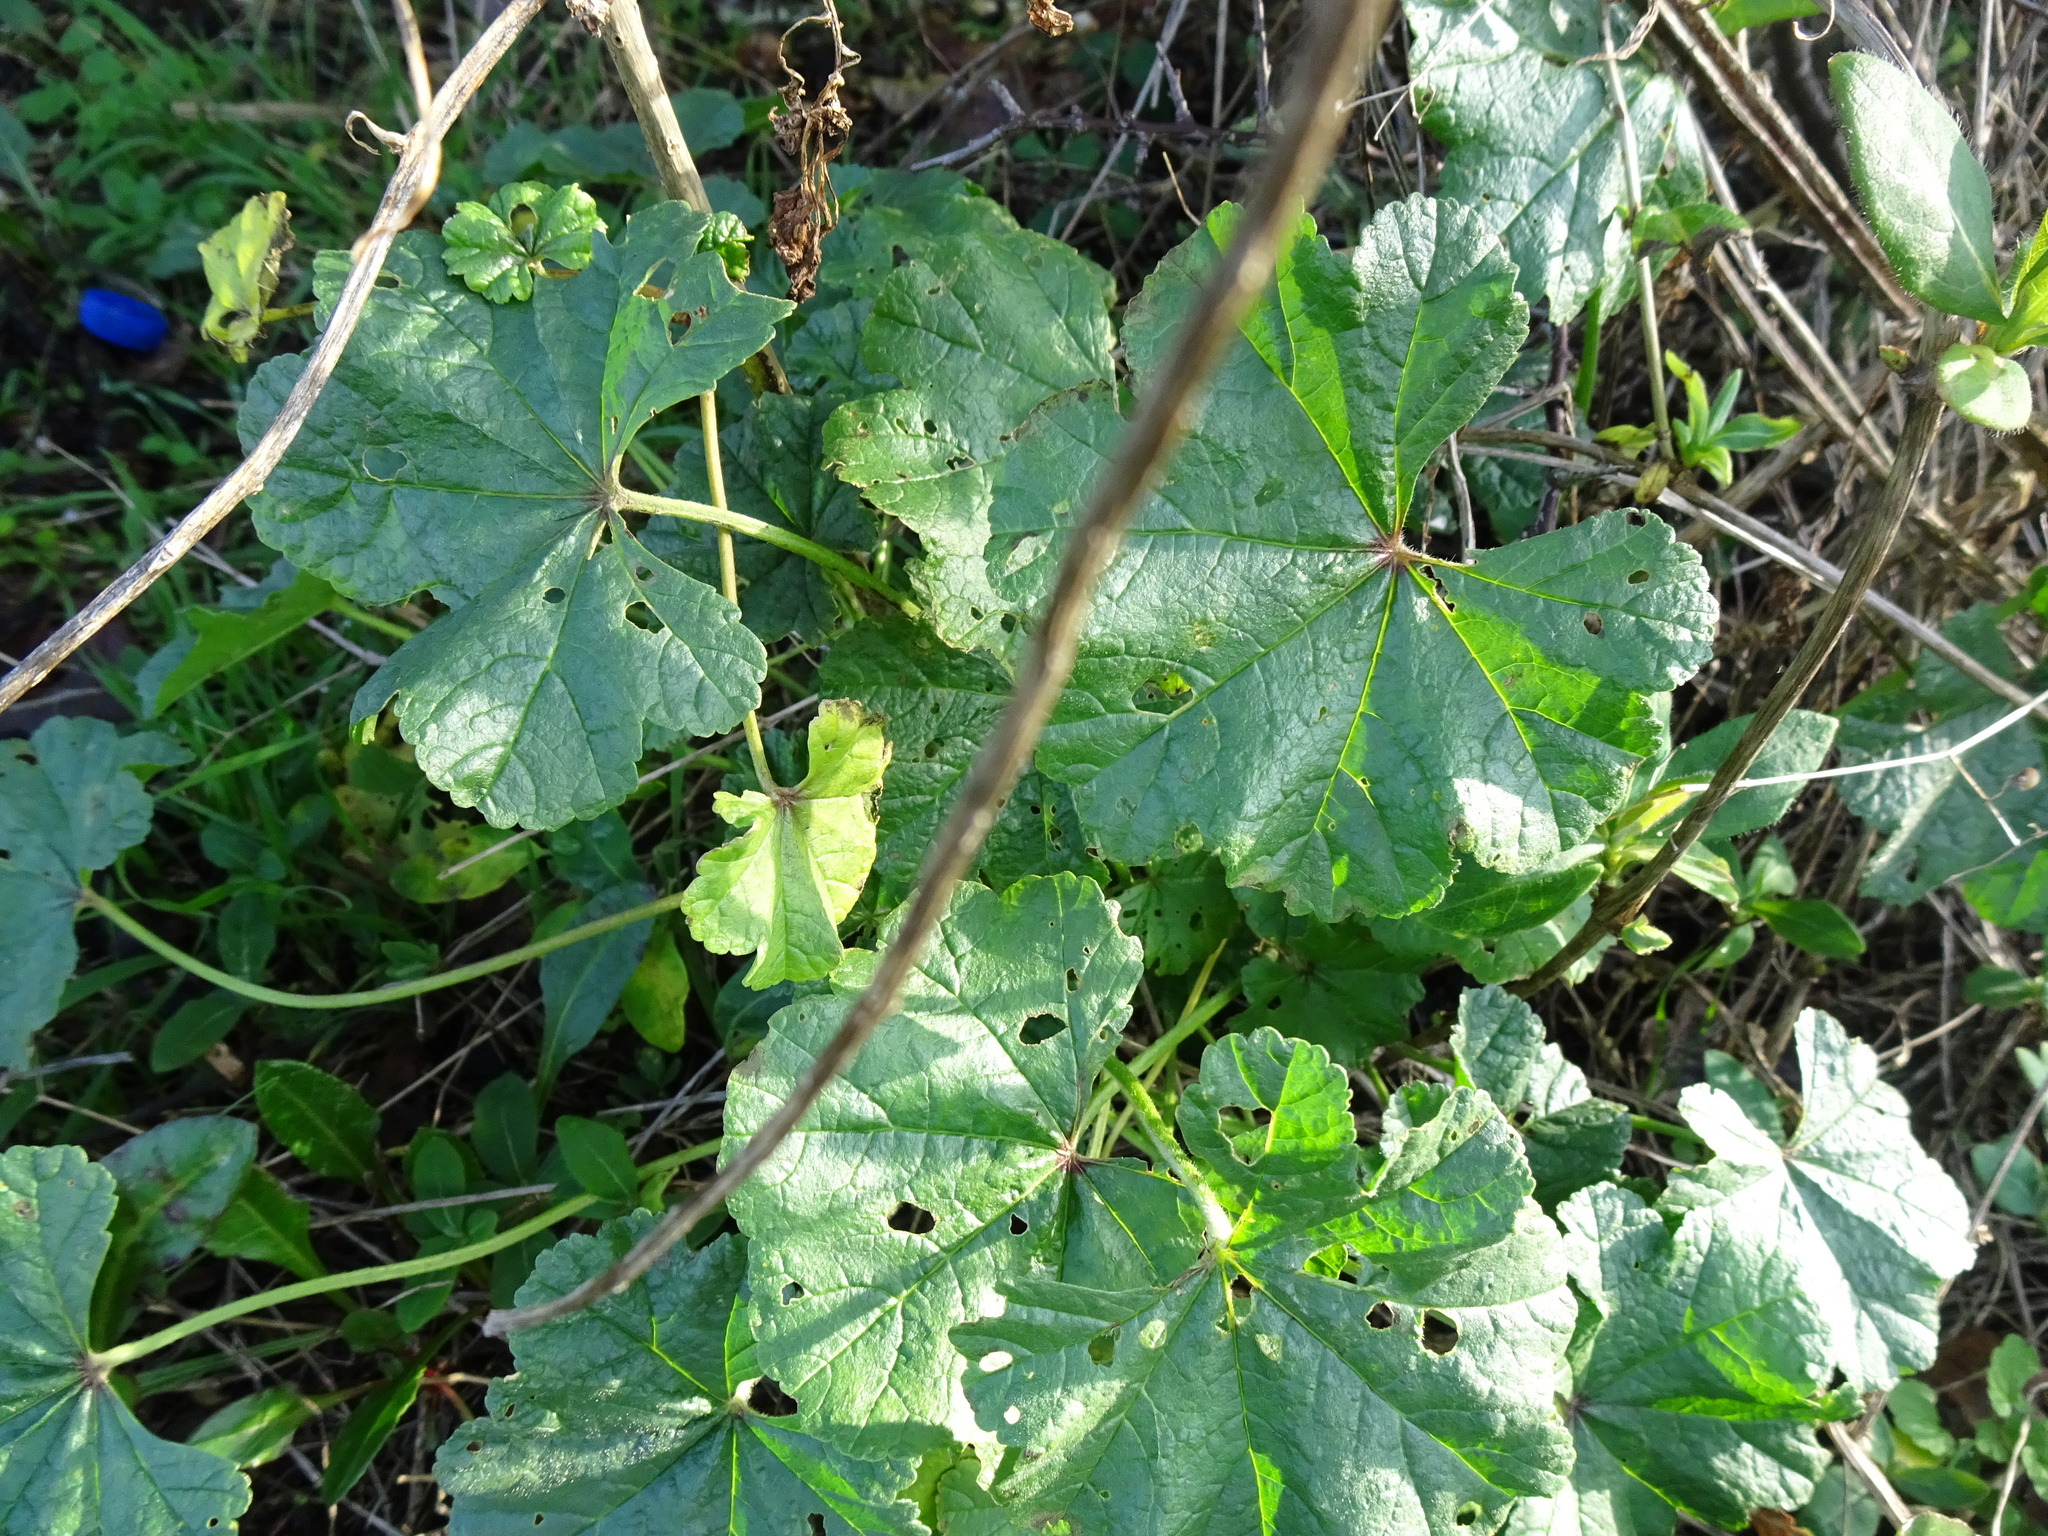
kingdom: Plantae
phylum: Tracheophyta
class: Magnoliopsida
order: Malvales
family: Malvaceae
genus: Malva
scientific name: Malva sylvestris
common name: Common mallow
